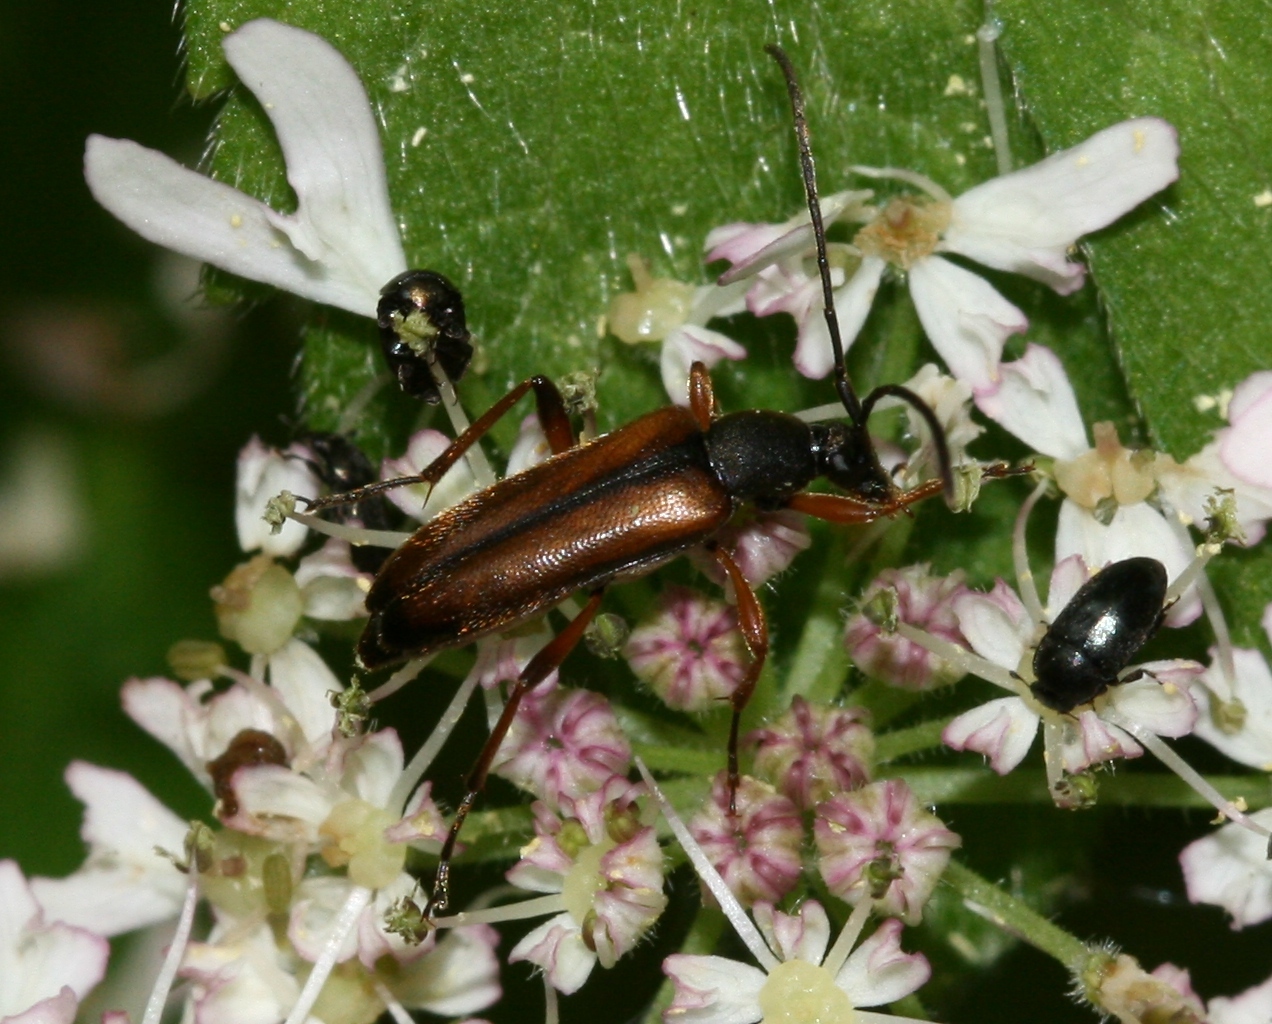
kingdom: Animalia
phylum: Arthropoda
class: Insecta
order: Coleoptera
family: Cerambycidae
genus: Alosterna
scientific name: Alosterna tabacicolor
